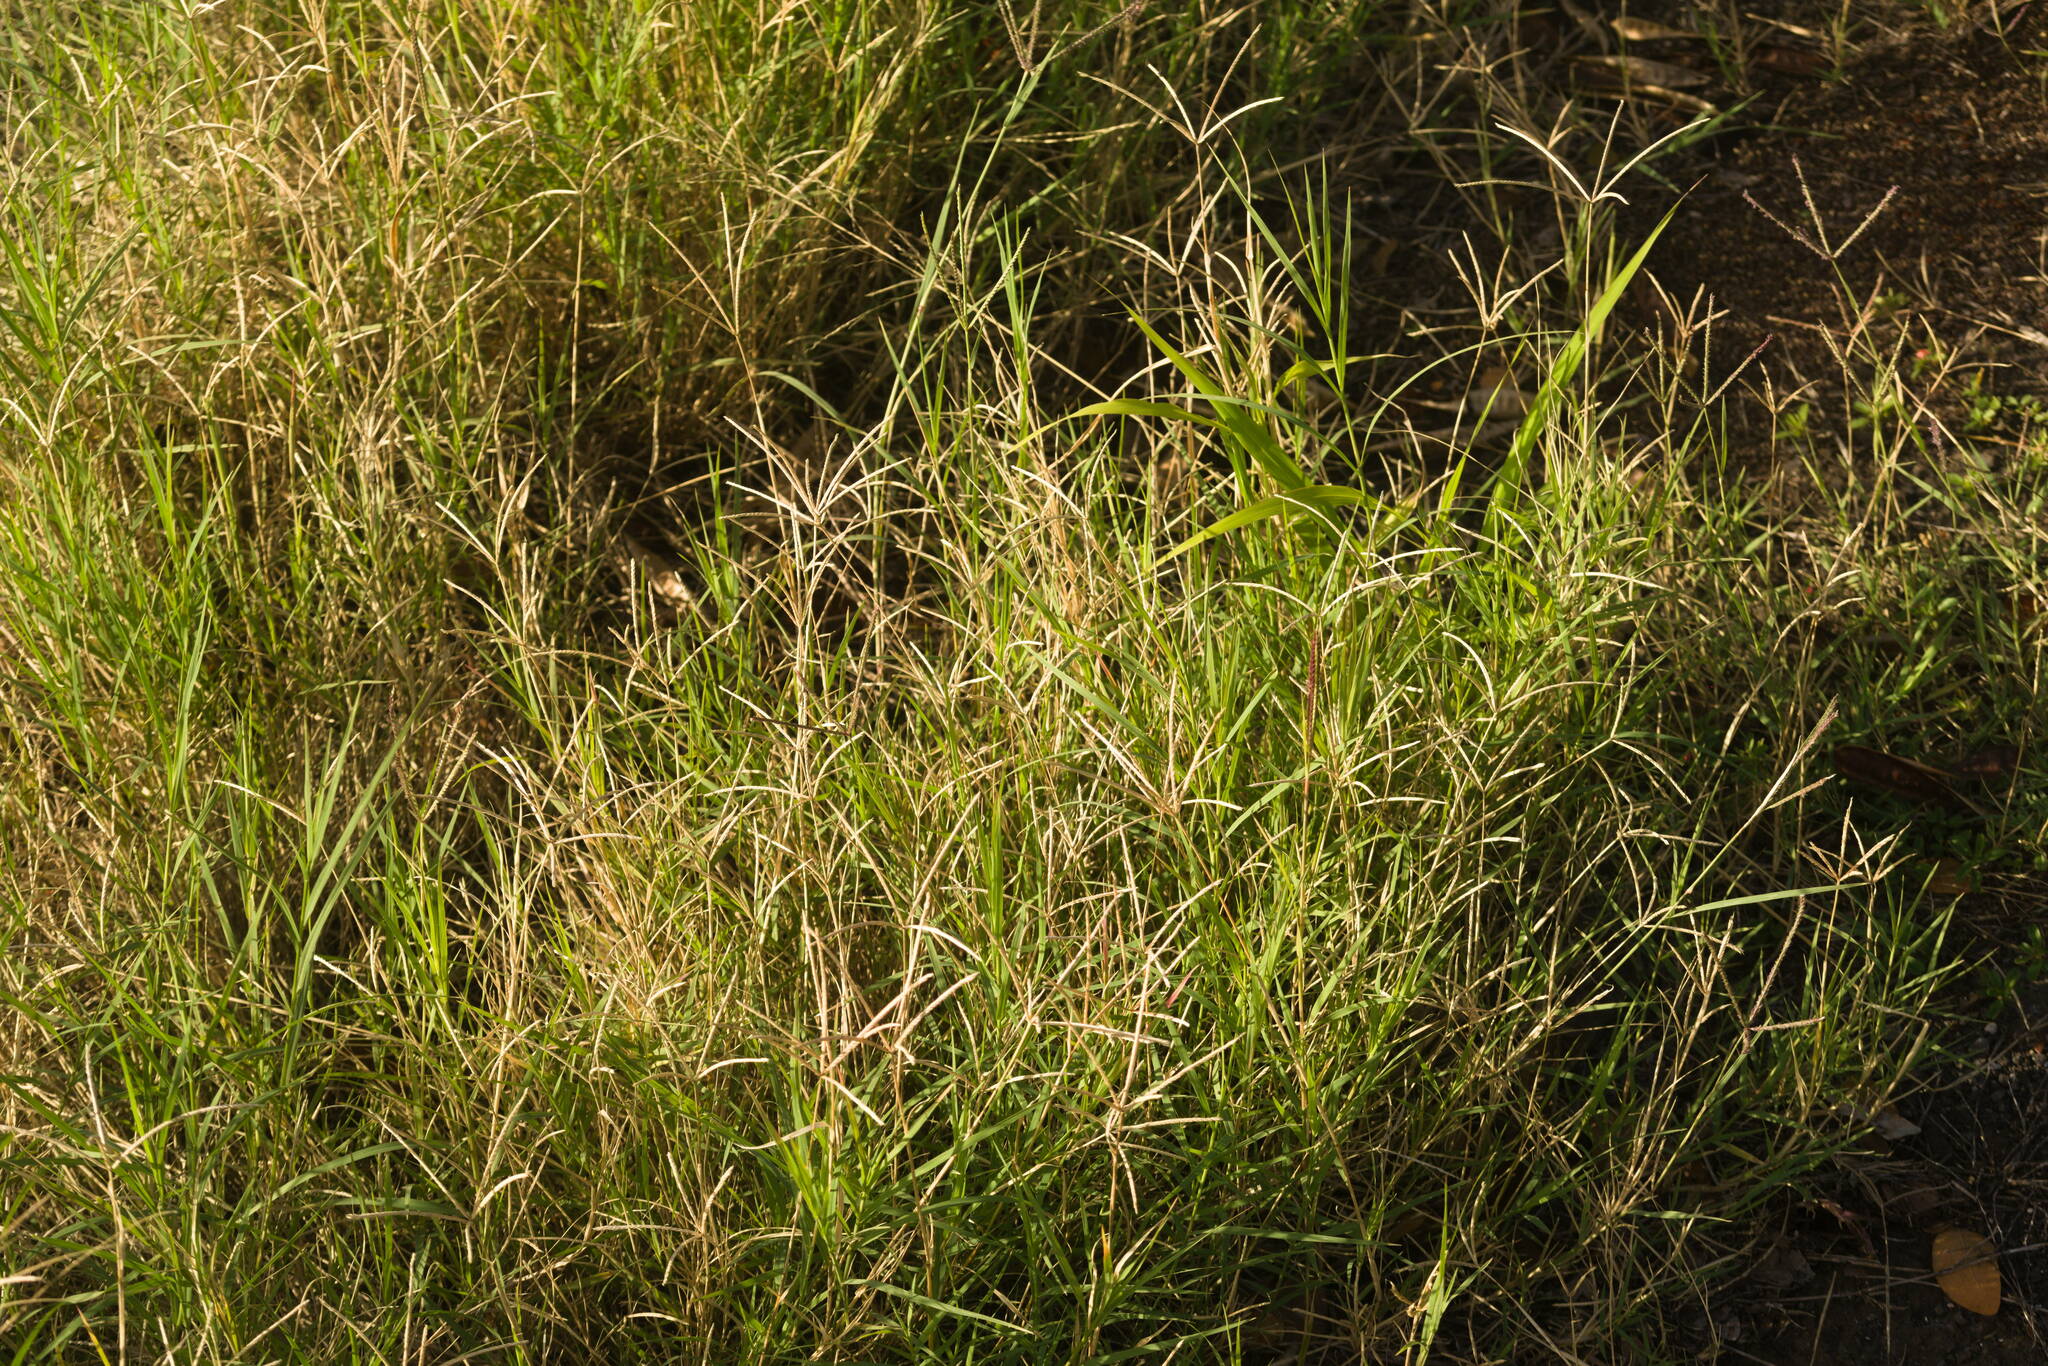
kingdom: Plantae
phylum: Tracheophyta
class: Liliopsida
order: Poales
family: Poaceae
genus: Cynodon
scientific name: Cynodon nlemfuensis
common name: African bermudagrass
